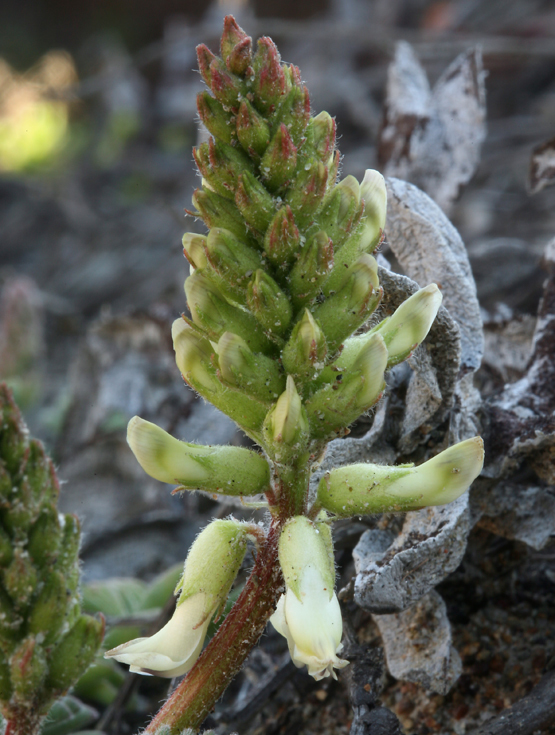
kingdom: Plantae
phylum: Tracheophyta
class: Magnoliopsida
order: Fabales
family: Fabaceae
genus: Astragalus
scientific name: Astragalus nuttallii
